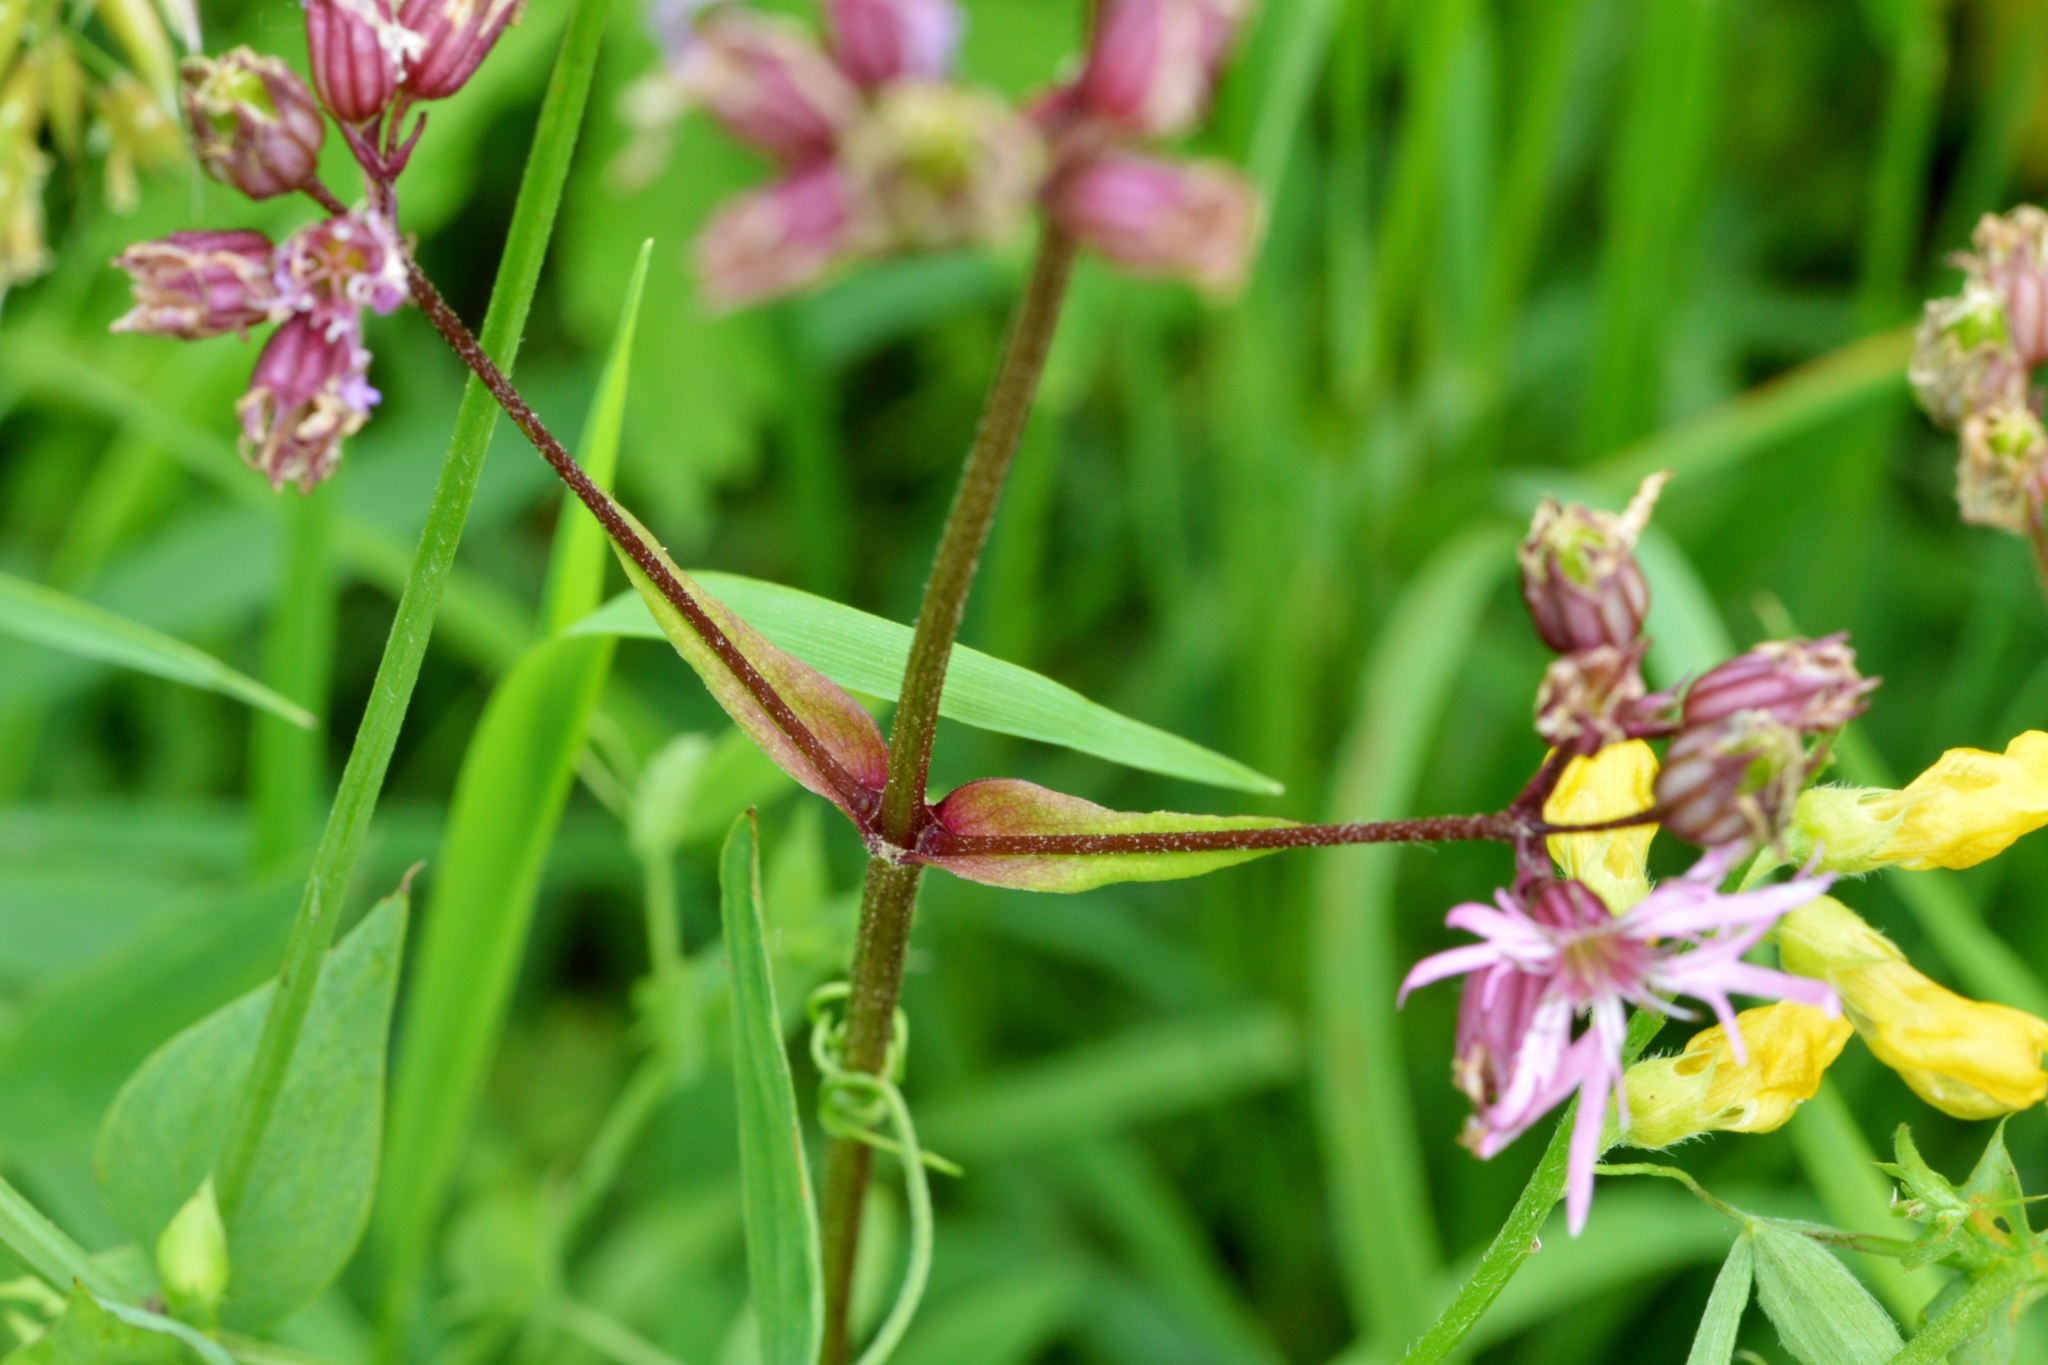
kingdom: Plantae
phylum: Tracheophyta
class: Magnoliopsida
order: Caryophyllales
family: Caryophyllaceae
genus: Silene
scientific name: Silene flos-cuculi
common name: Ragged-robin
